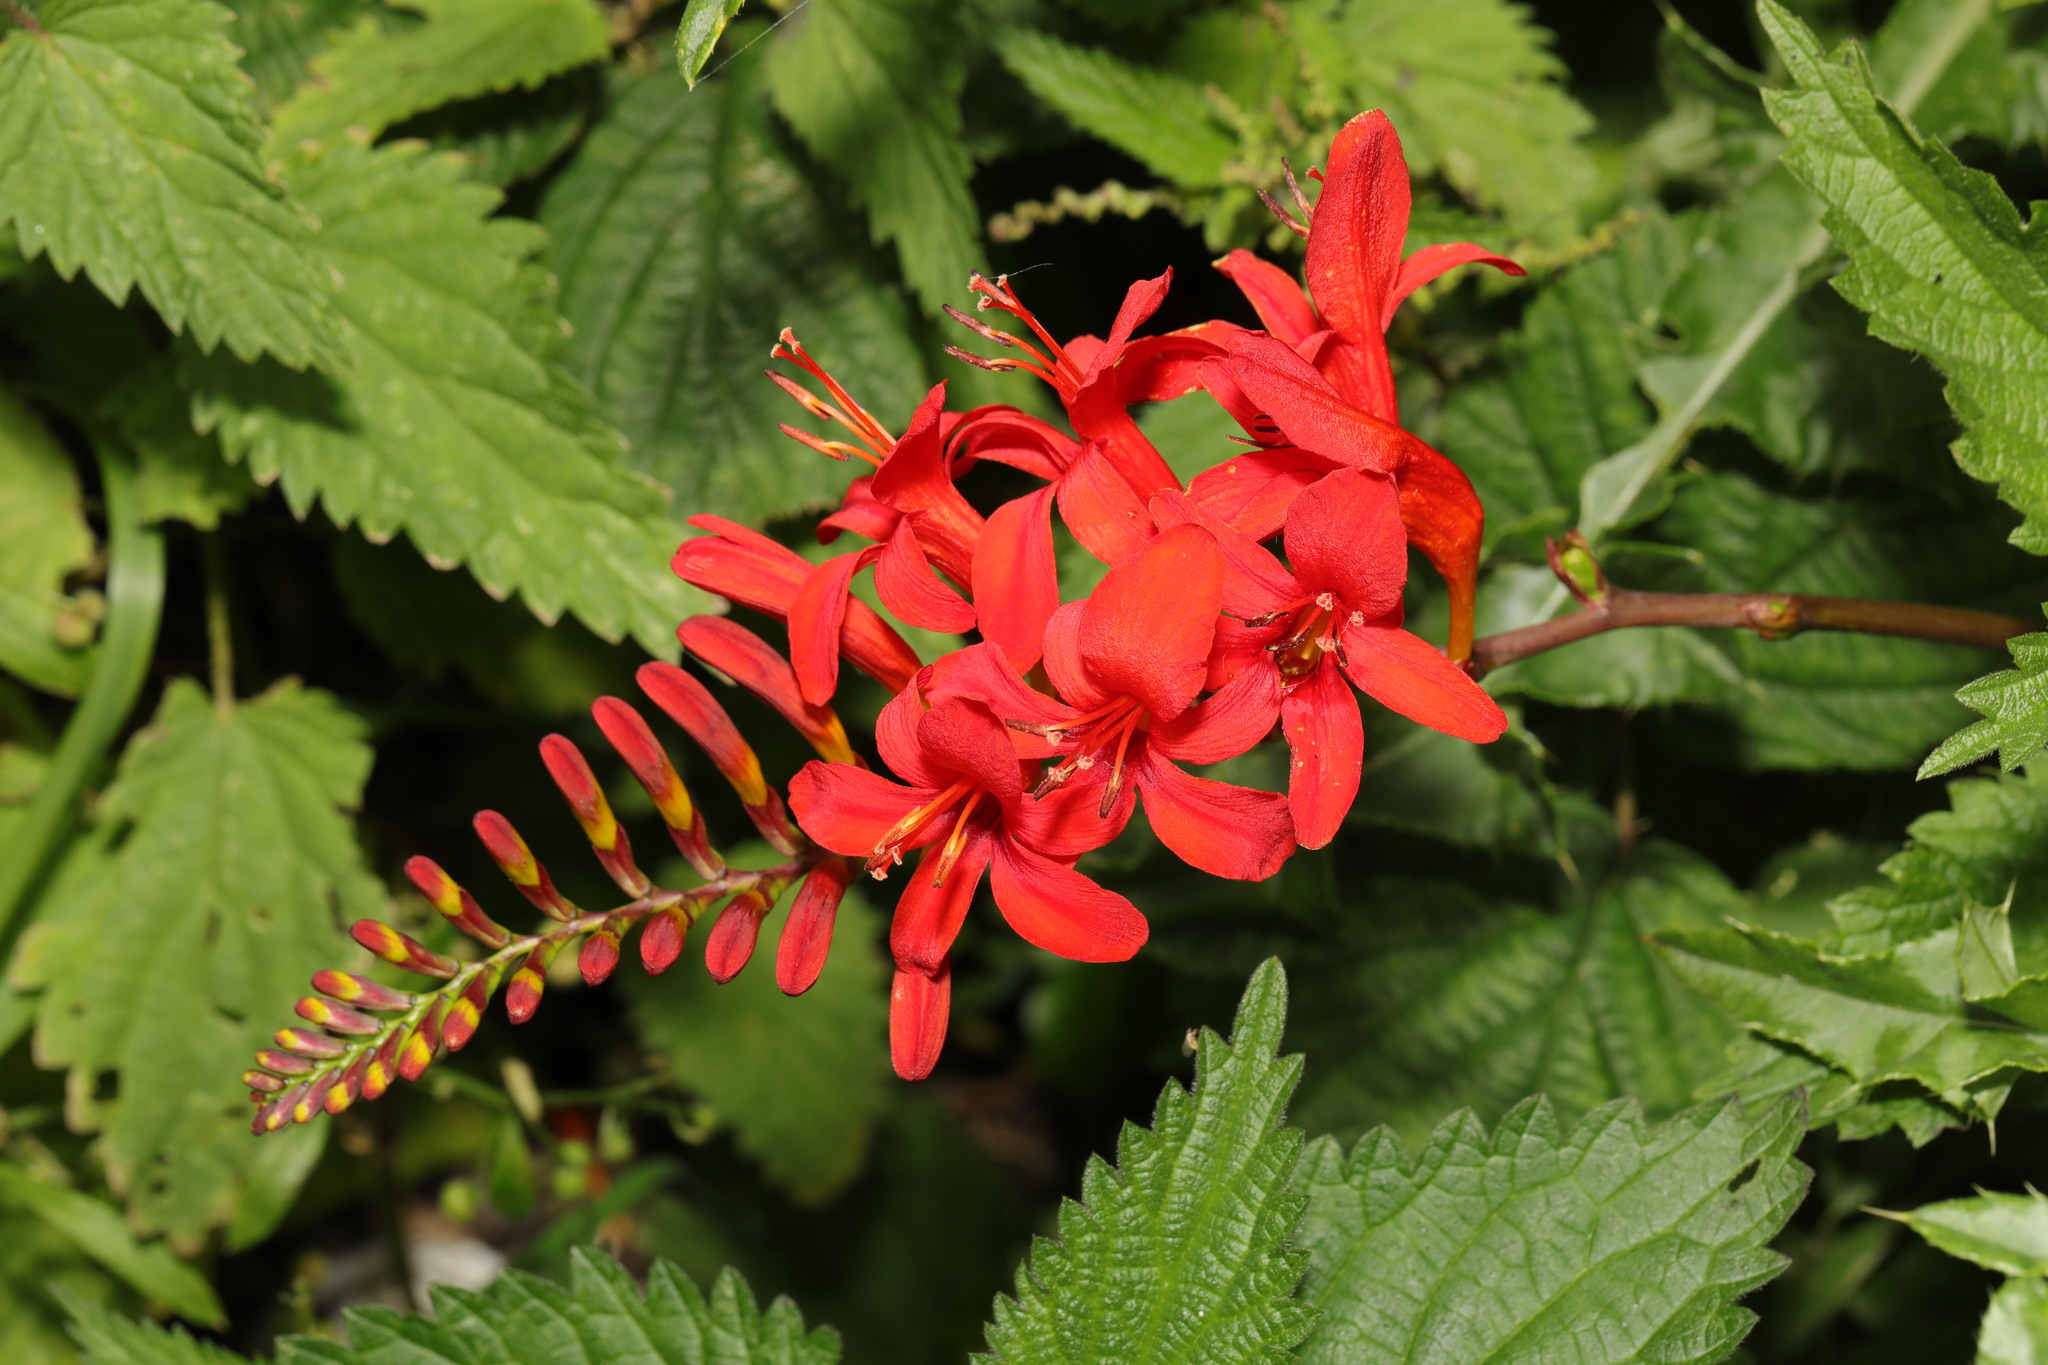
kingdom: Plantae
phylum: Tracheophyta
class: Liliopsida
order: Asparagales
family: Iridaceae
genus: Crocosmia
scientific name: Crocosmia
